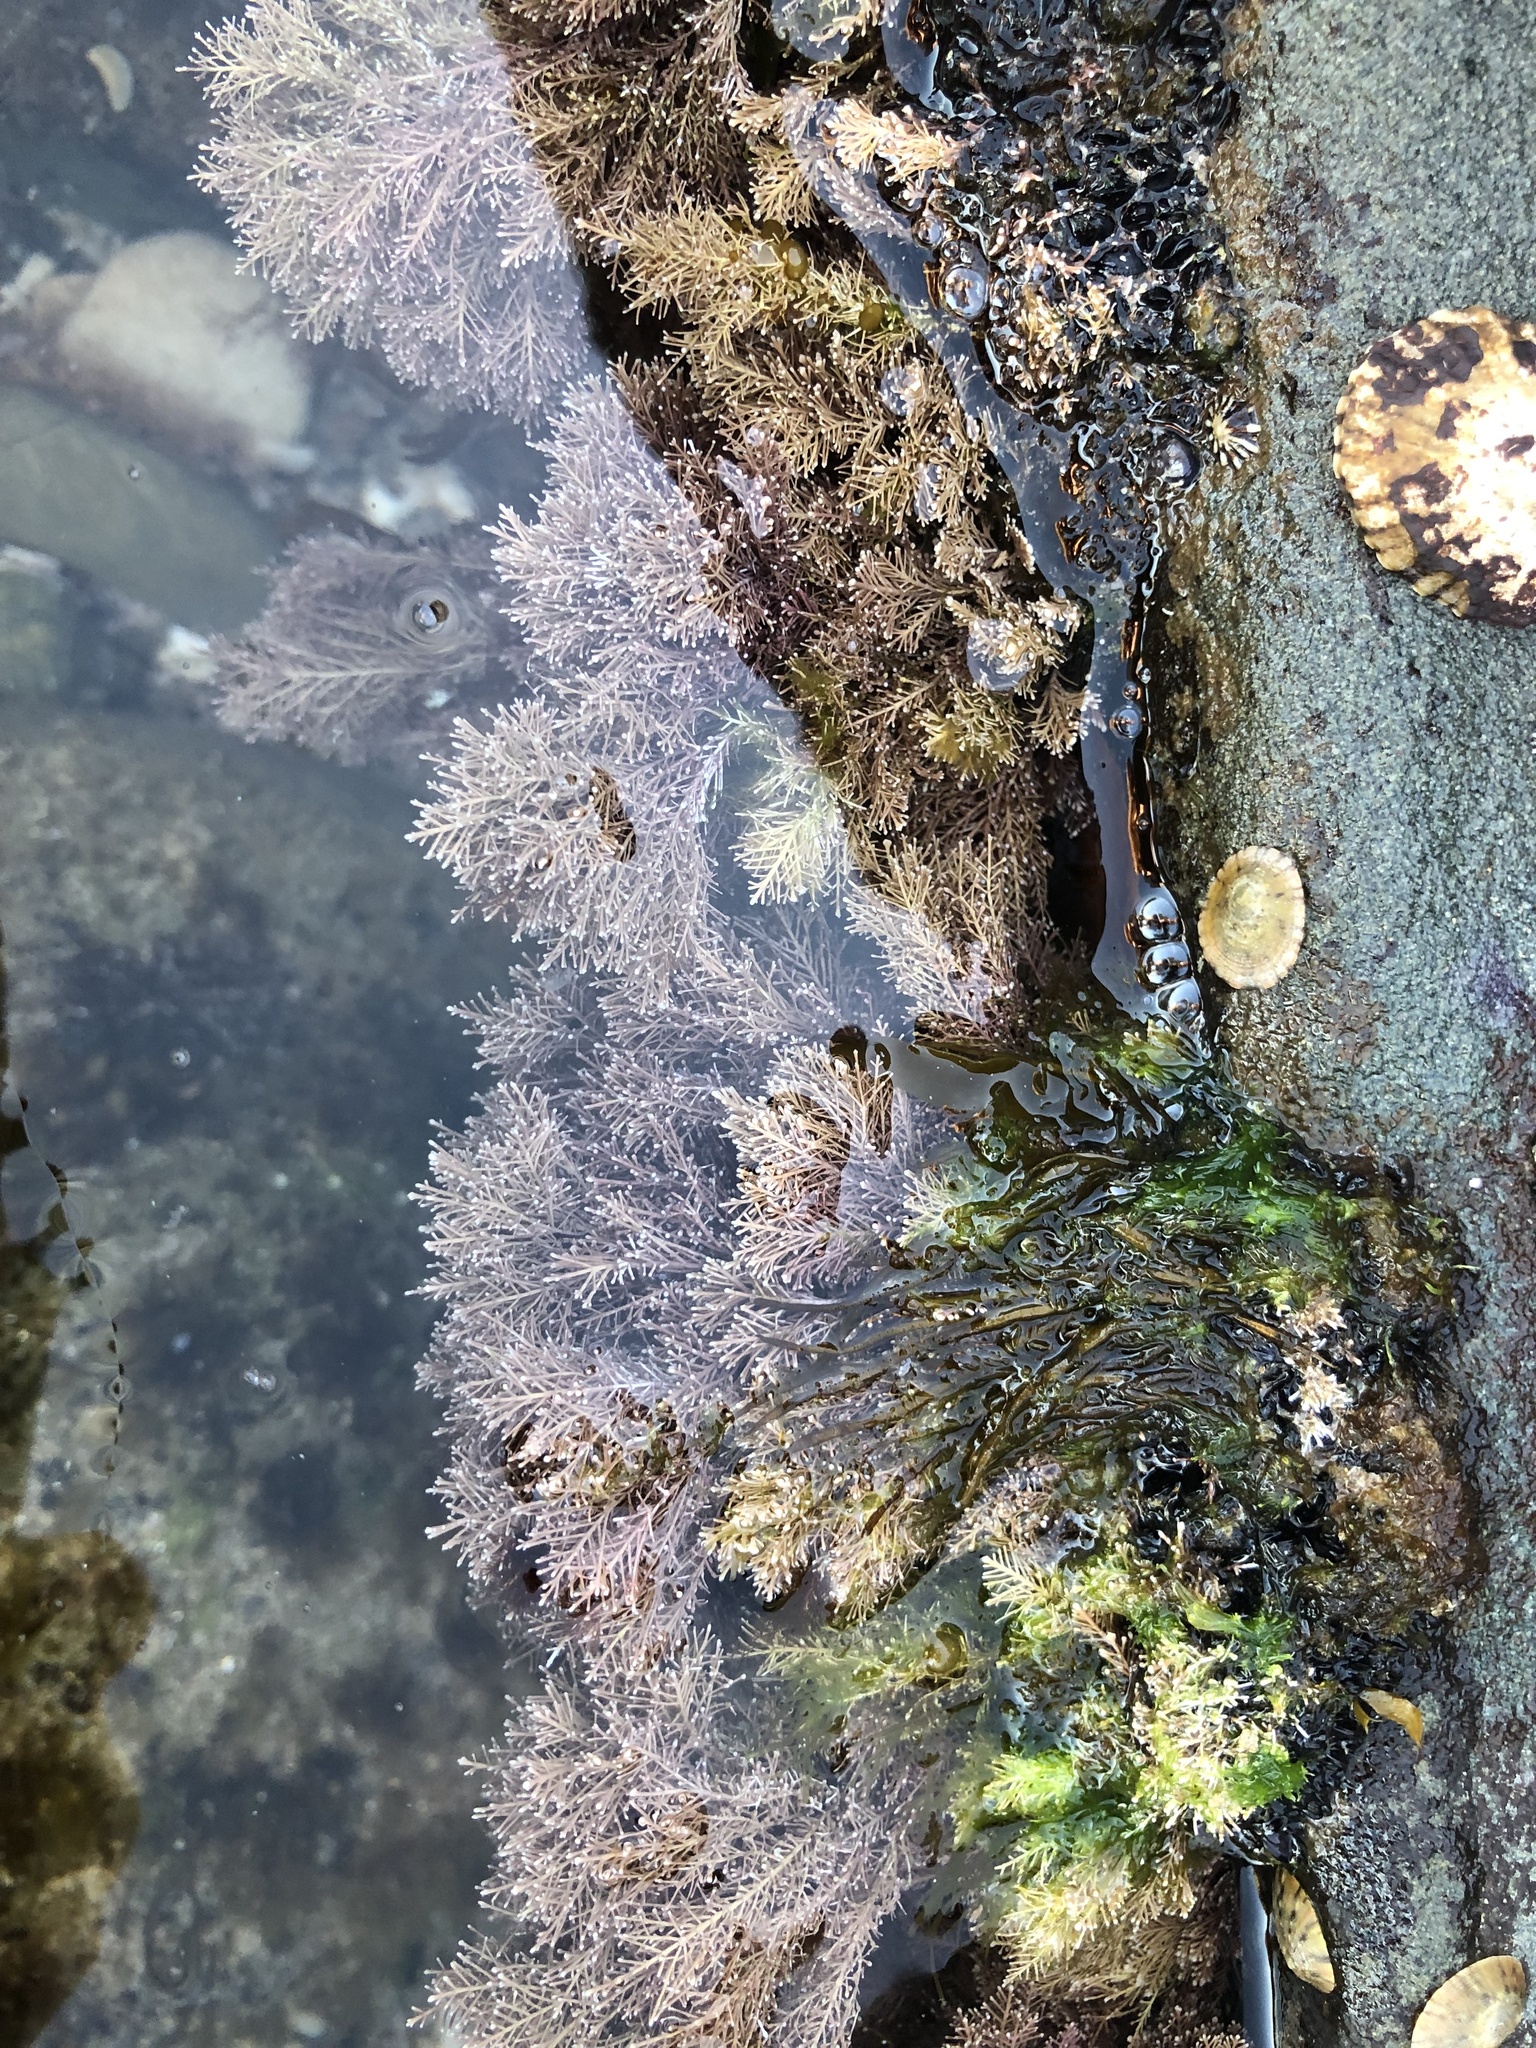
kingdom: Plantae
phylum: Rhodophyta
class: Florideophyceae
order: Corallinales
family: Corallinaceae
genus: Corallina
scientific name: Corallina officinalis
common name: Coral weed
